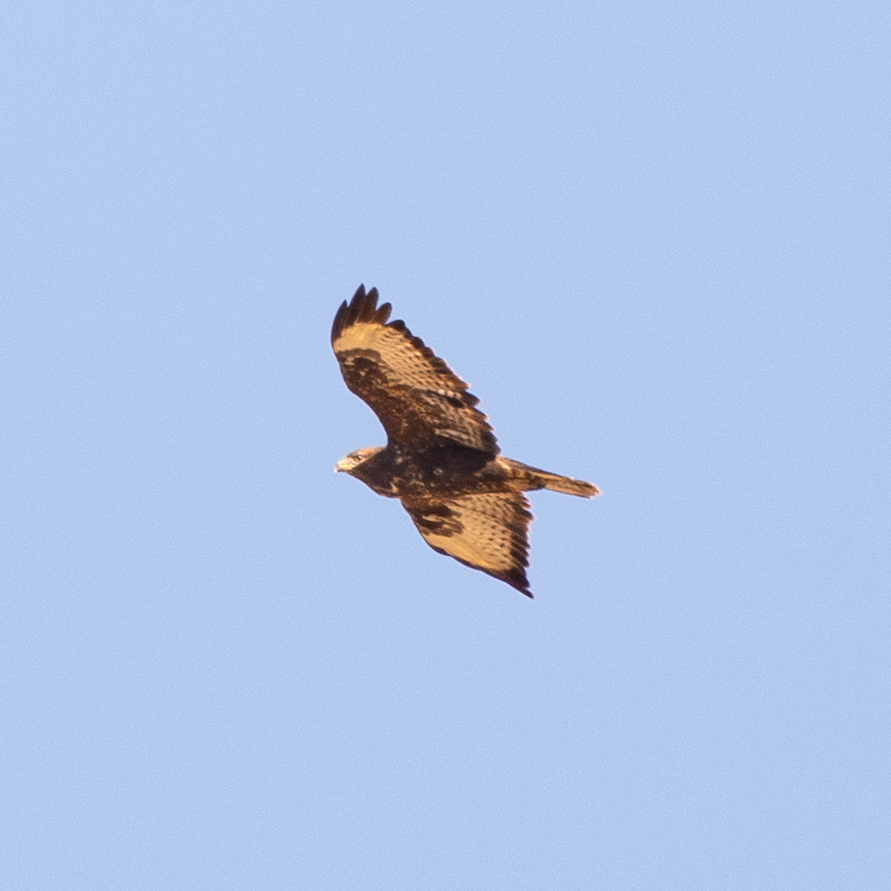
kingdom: Animalia
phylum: Chordata
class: Aves
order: Accipitriformes
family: Accipitridae
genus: Buteo
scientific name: Buteo buteo
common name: Common buzzard
